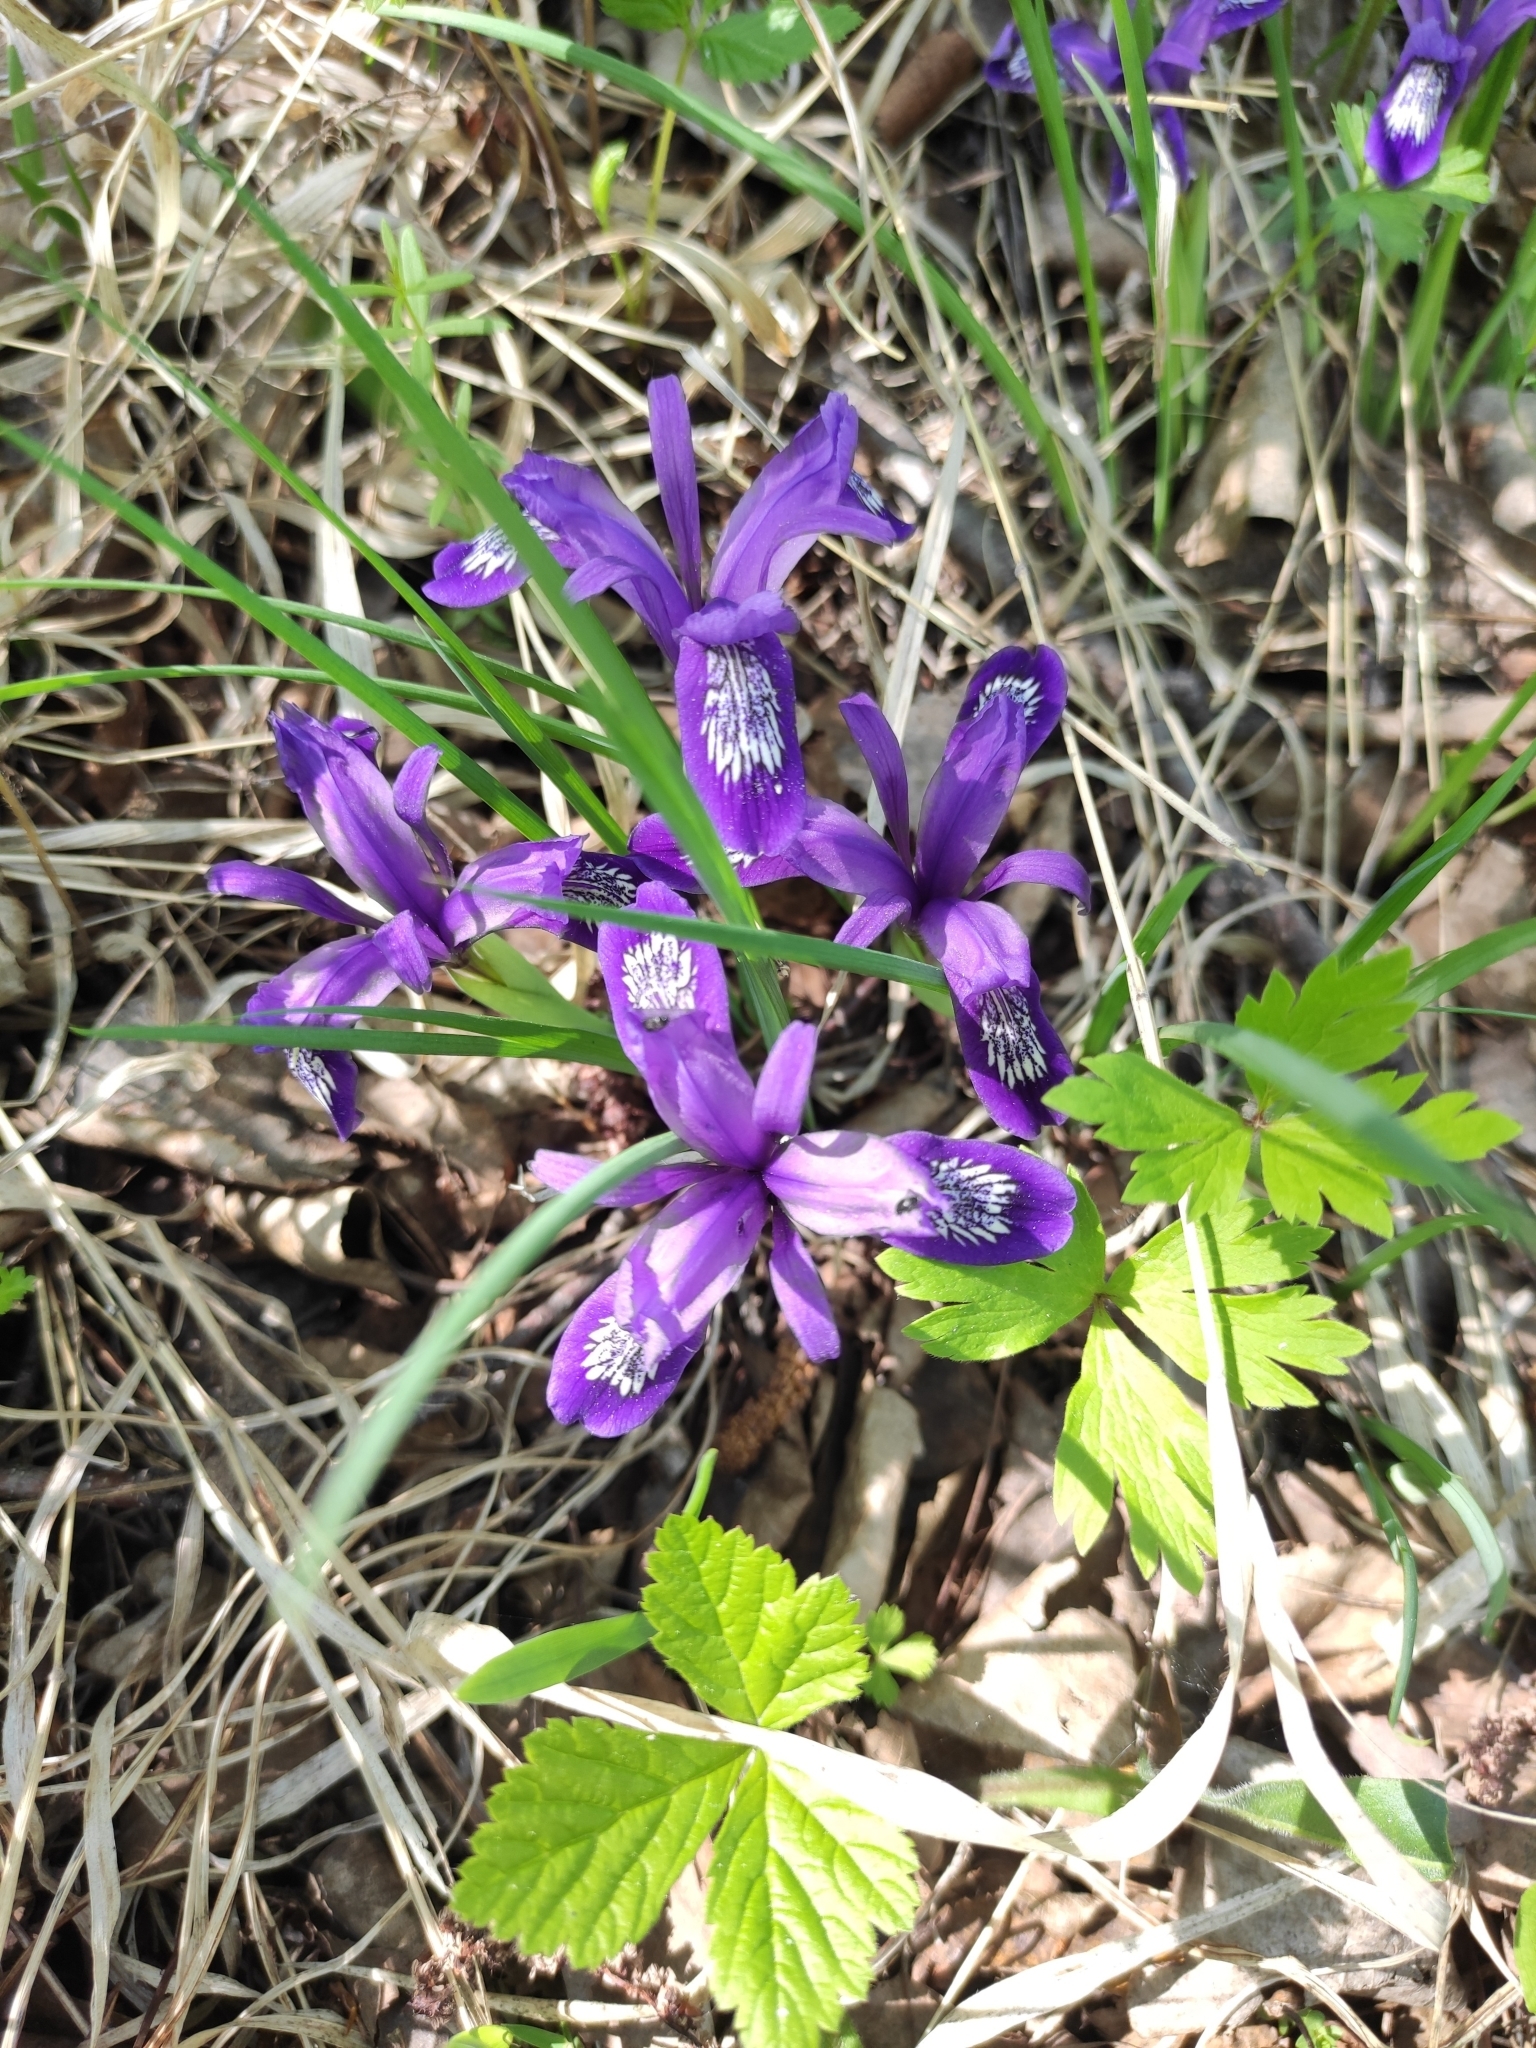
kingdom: Plantae
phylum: Tracheophyta
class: Liliopsida
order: Asparagales
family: Iridaceae
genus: Iris
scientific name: Iris ruthenica
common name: Purple-bract iris
